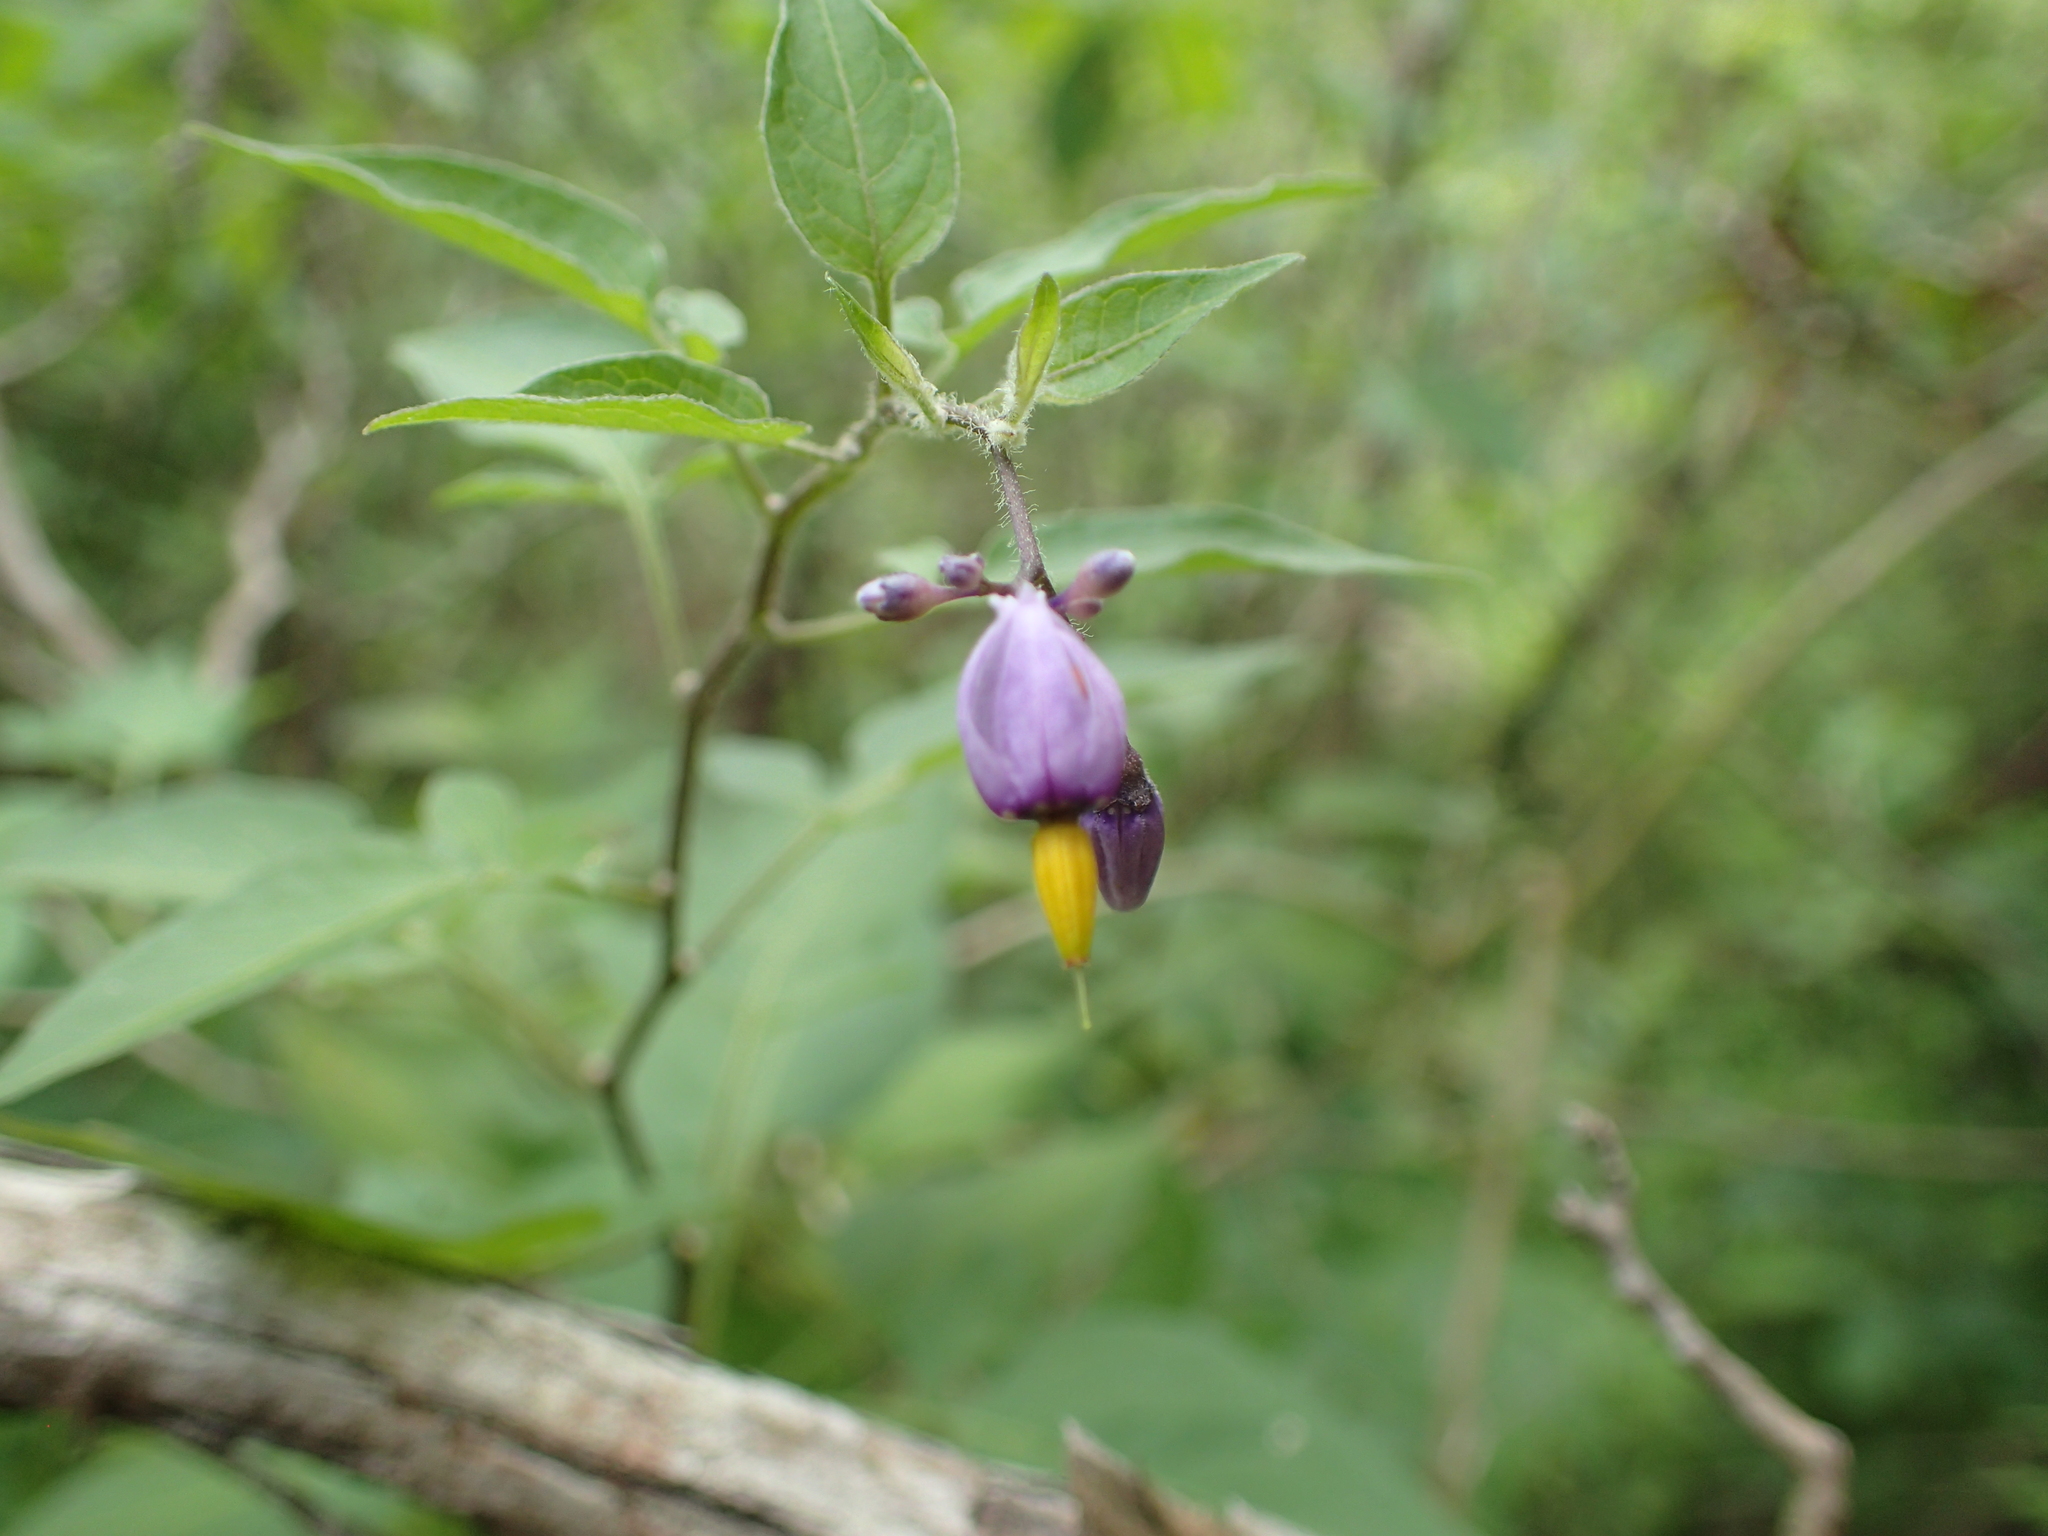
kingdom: Plantae
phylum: Tracheophyta
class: Magnoliopsida
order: Solanales
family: Solanaceae
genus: Solanum
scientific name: Solanum dulcamara
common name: Climbing nightshade
